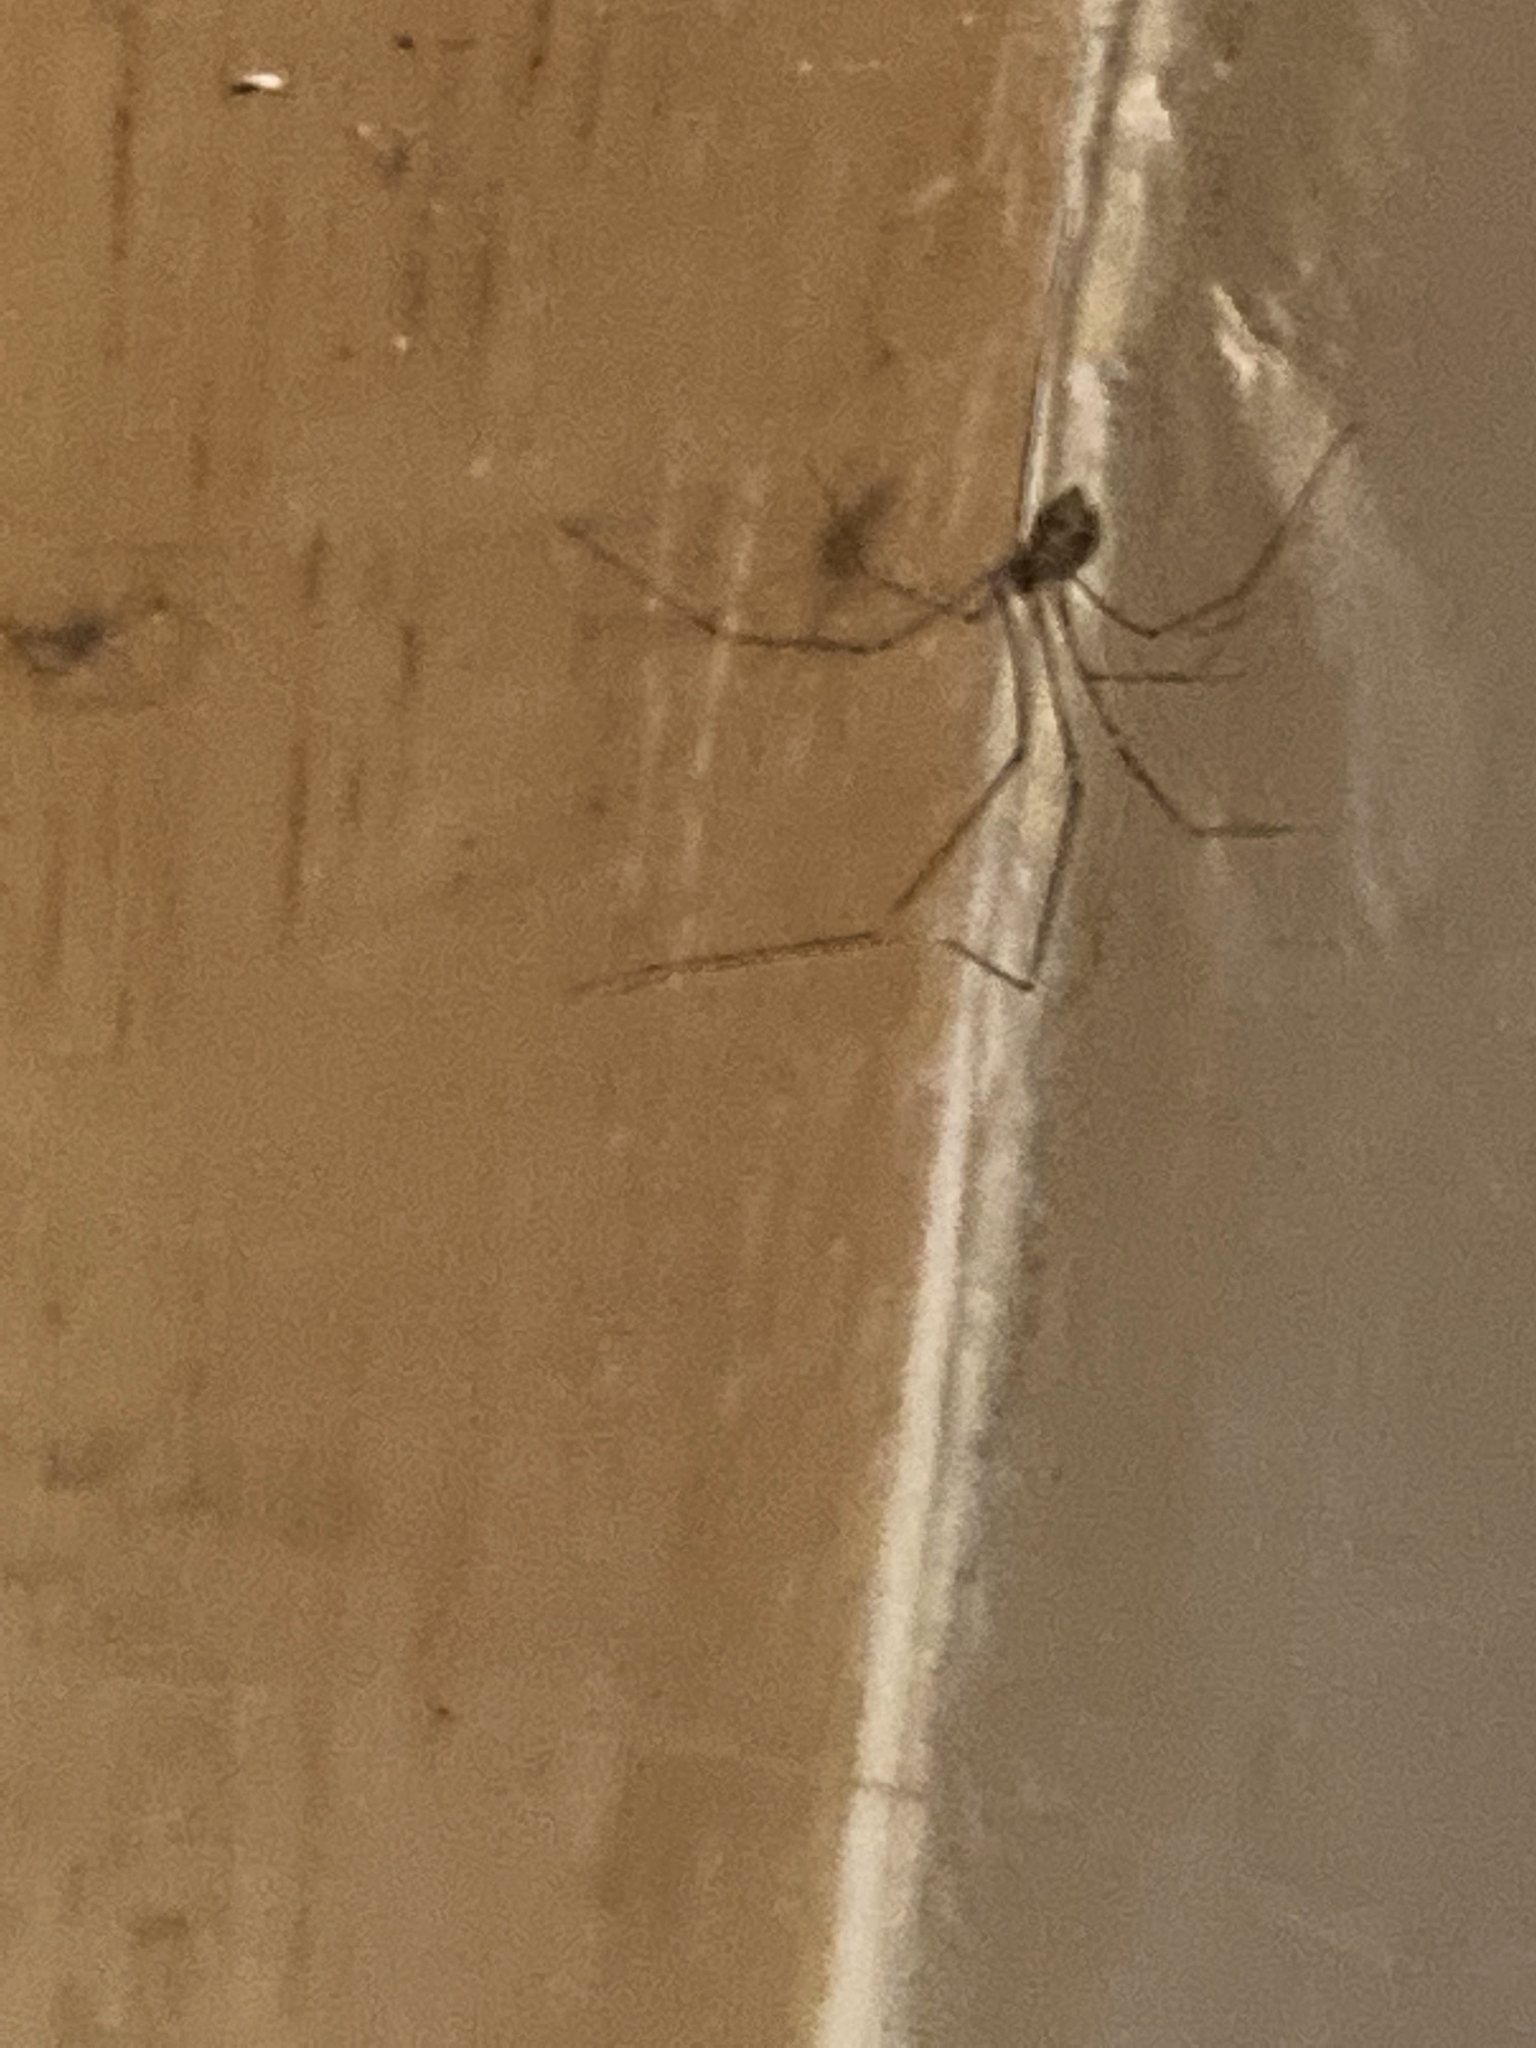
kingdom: Animalia
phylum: Arthropoda
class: Arachnida
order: Araneae
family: Pholcidae
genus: Crossopriza
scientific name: Crossopriza lyoni
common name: Cellar spiders
